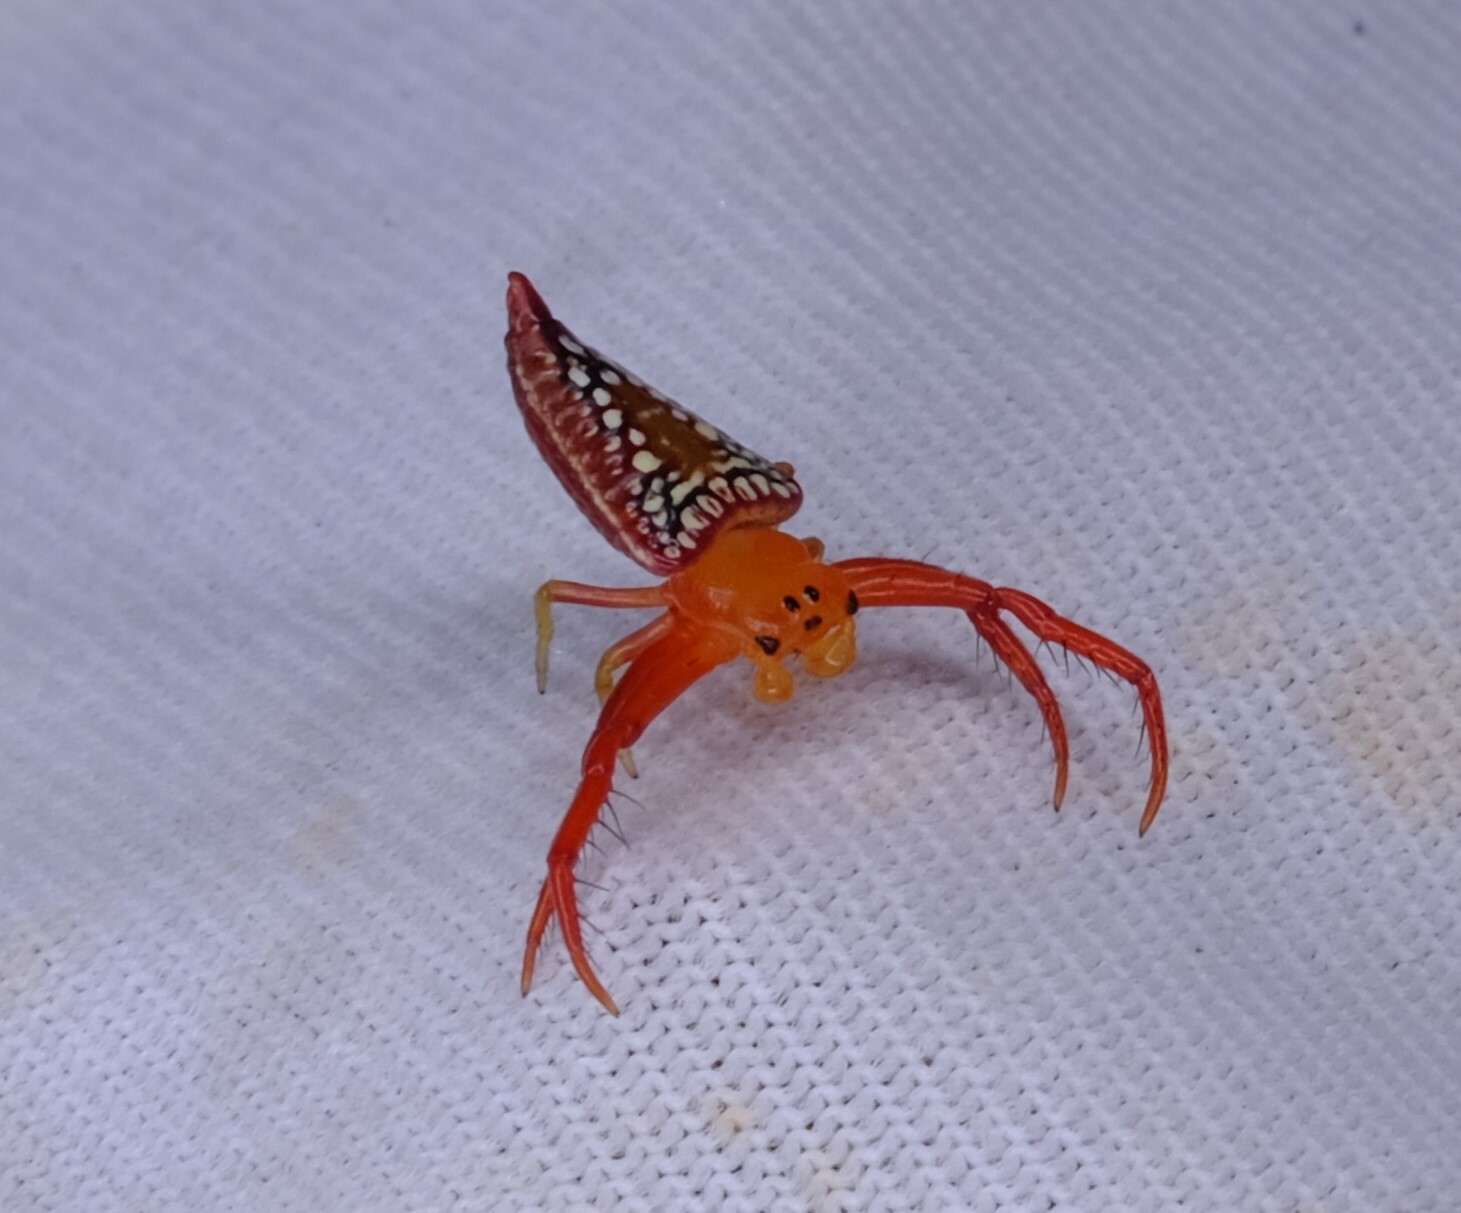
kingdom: Animalia
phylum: Arthropoda
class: Arachnida
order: Araneae
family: Arkyidae
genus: Arkys
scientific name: Arkys walckenaeri
